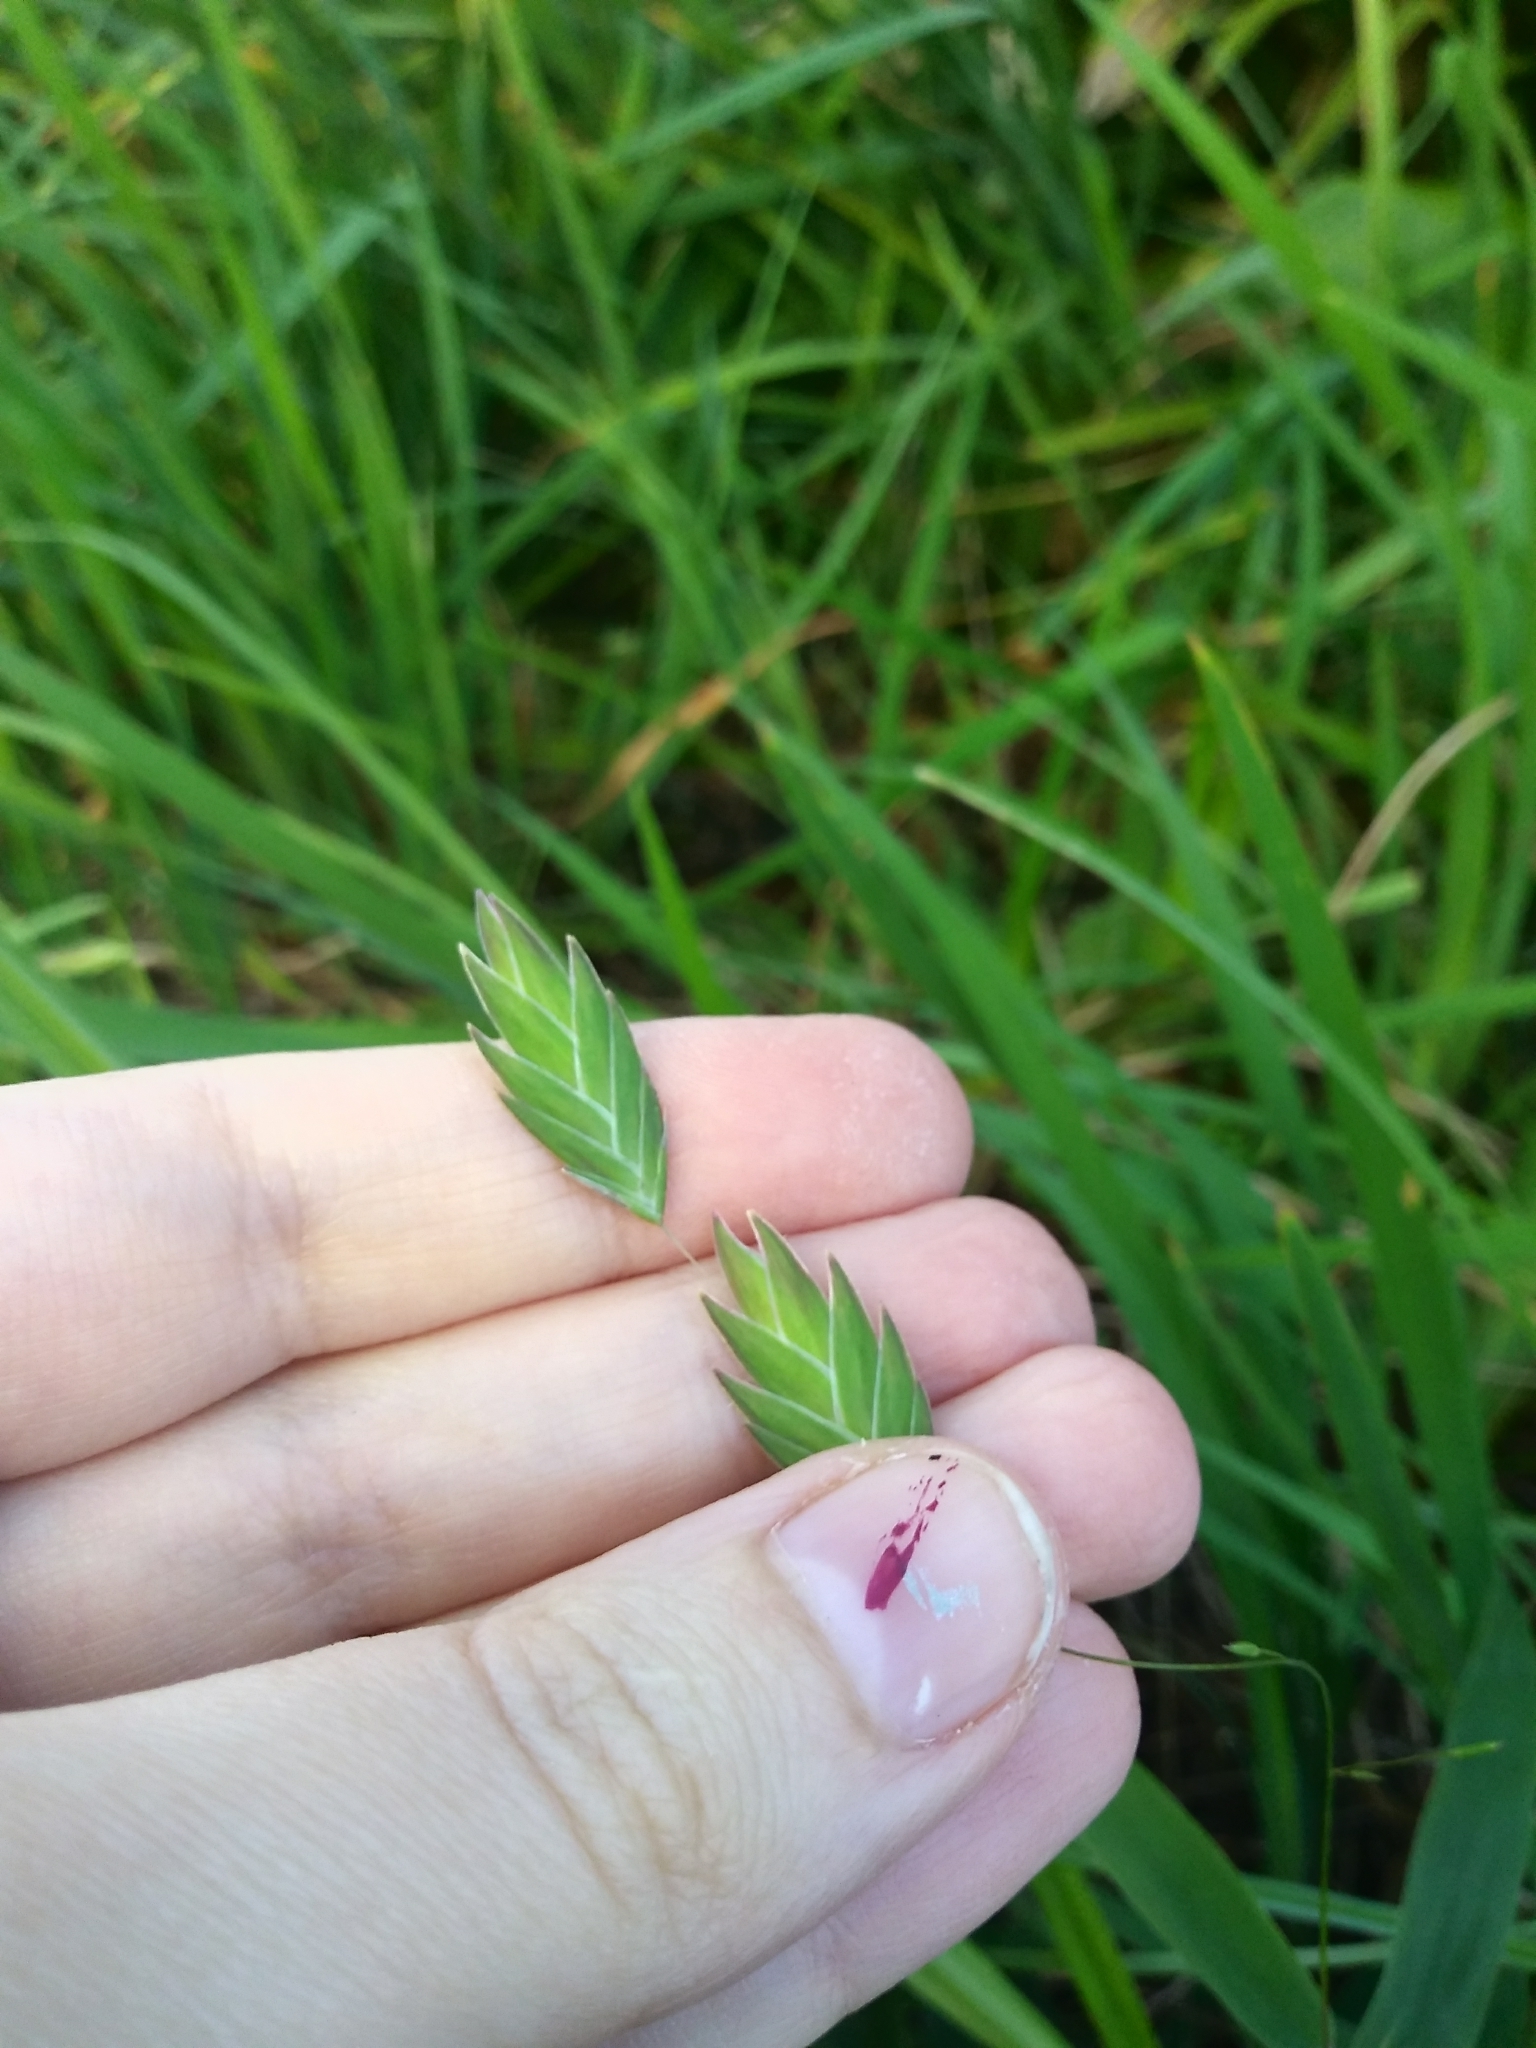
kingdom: Plantae
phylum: Tracheophyta
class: Liliopsida
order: Poales
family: Poaceae
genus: Chasmanthium
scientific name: Chasmanthium latifolium
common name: Broad-leaved chasmanthium
